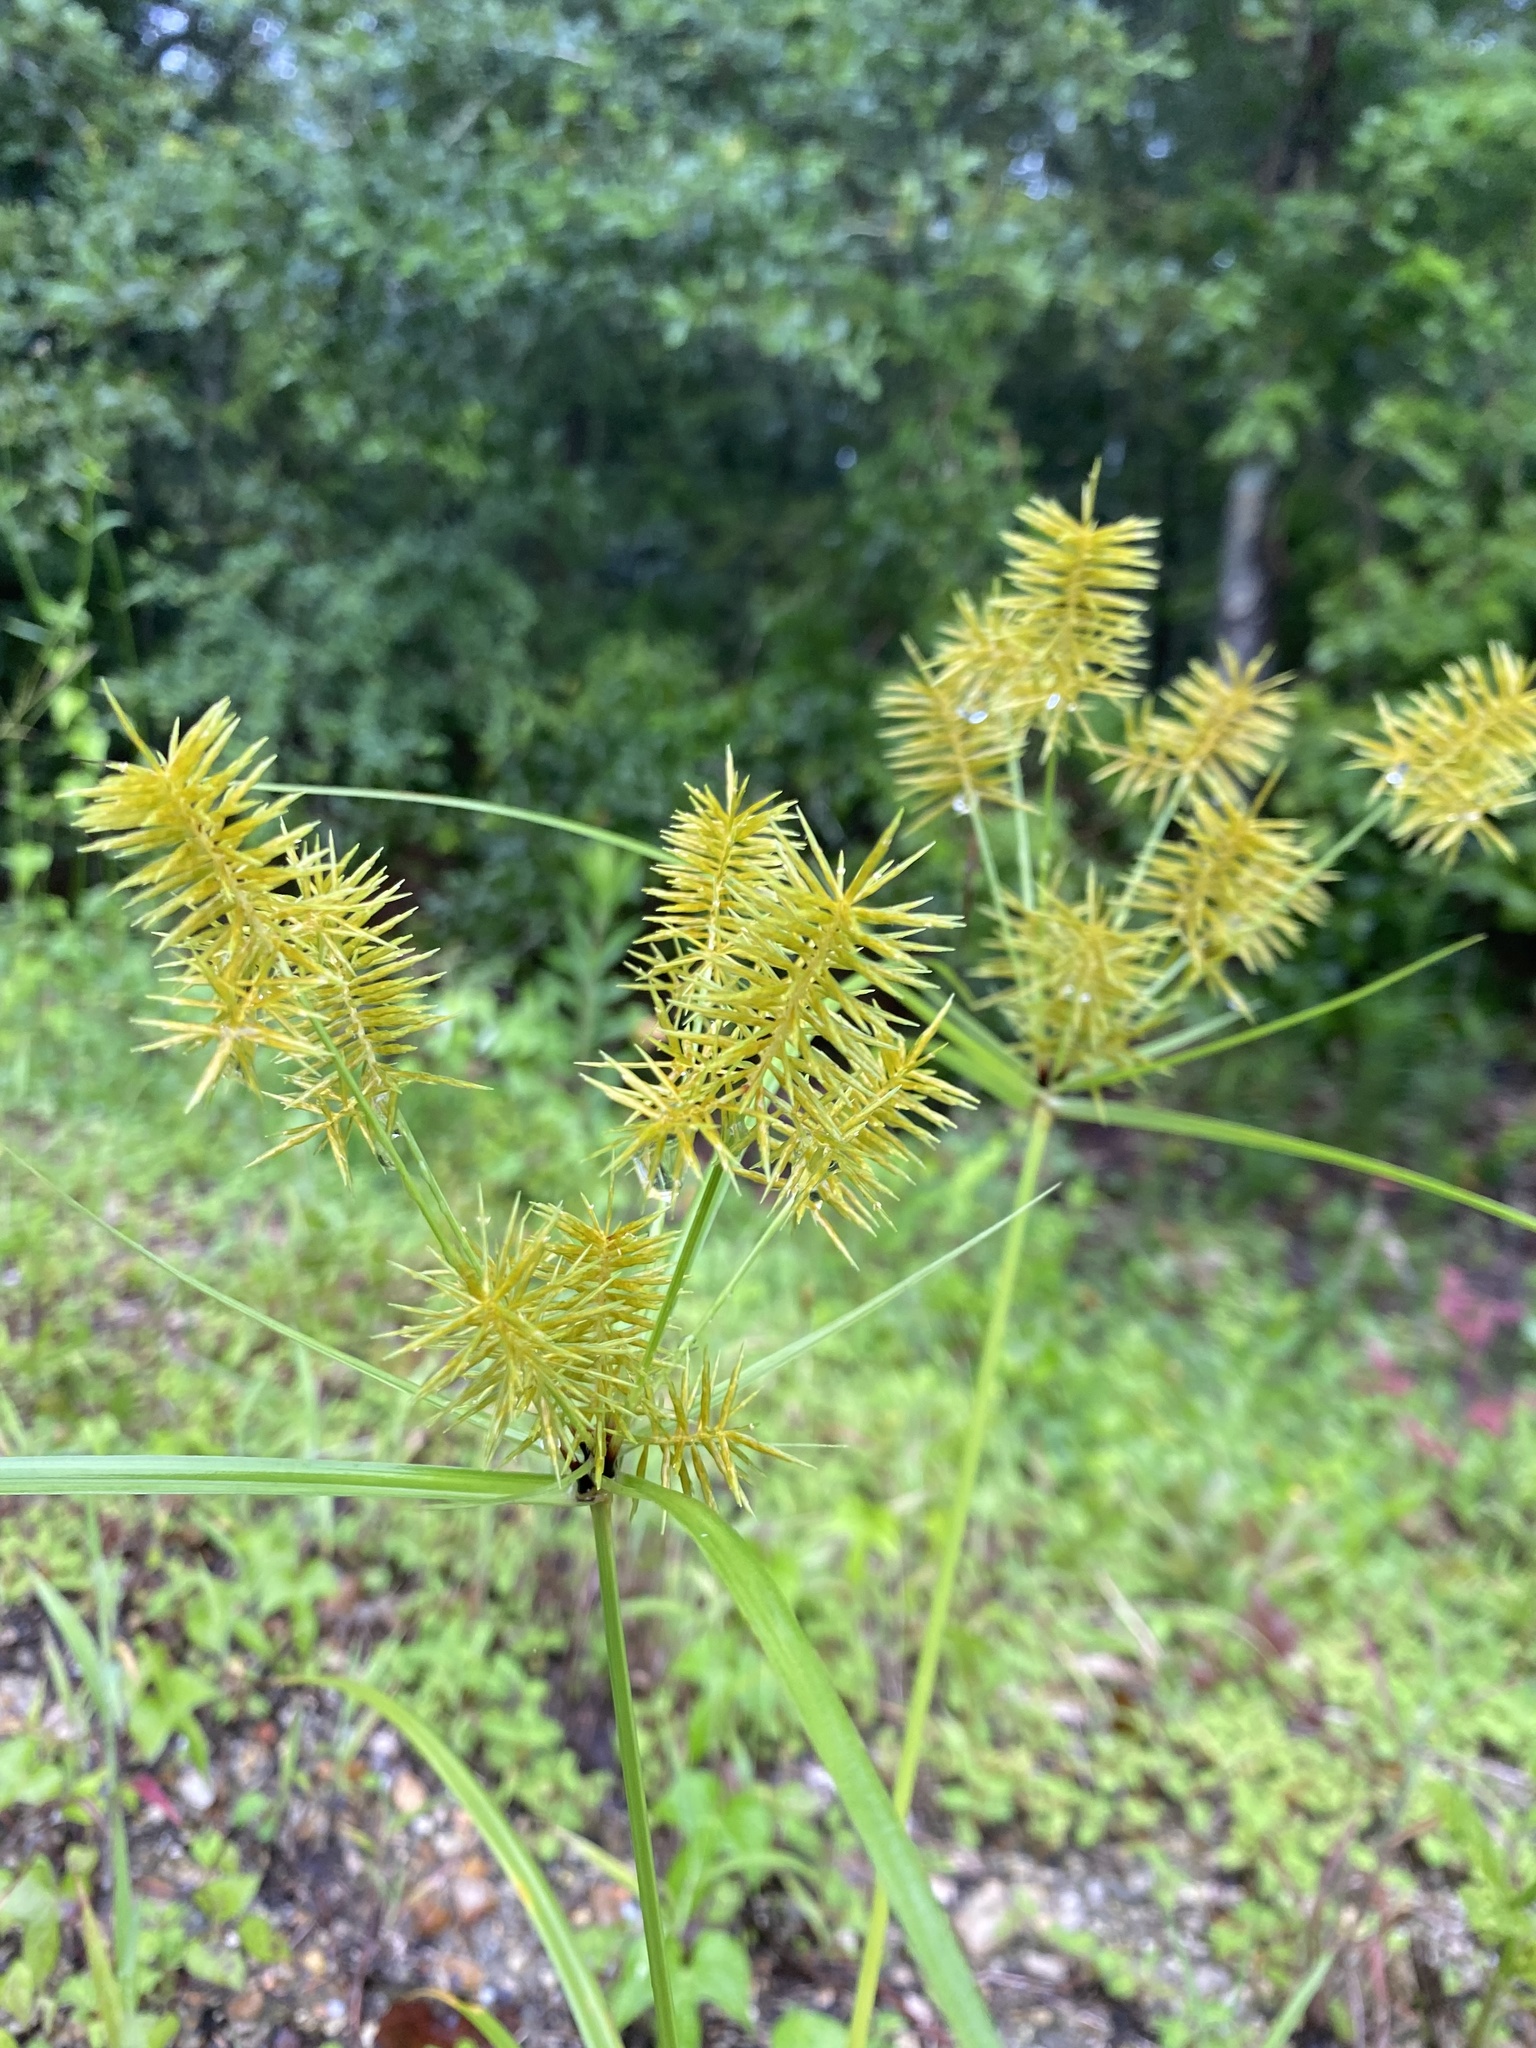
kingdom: Plantae
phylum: Tracheophyta
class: Liliopsida
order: Poales
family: Cyperaceae
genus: Cyperus
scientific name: Cyperus strigosus
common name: False nutsedge
